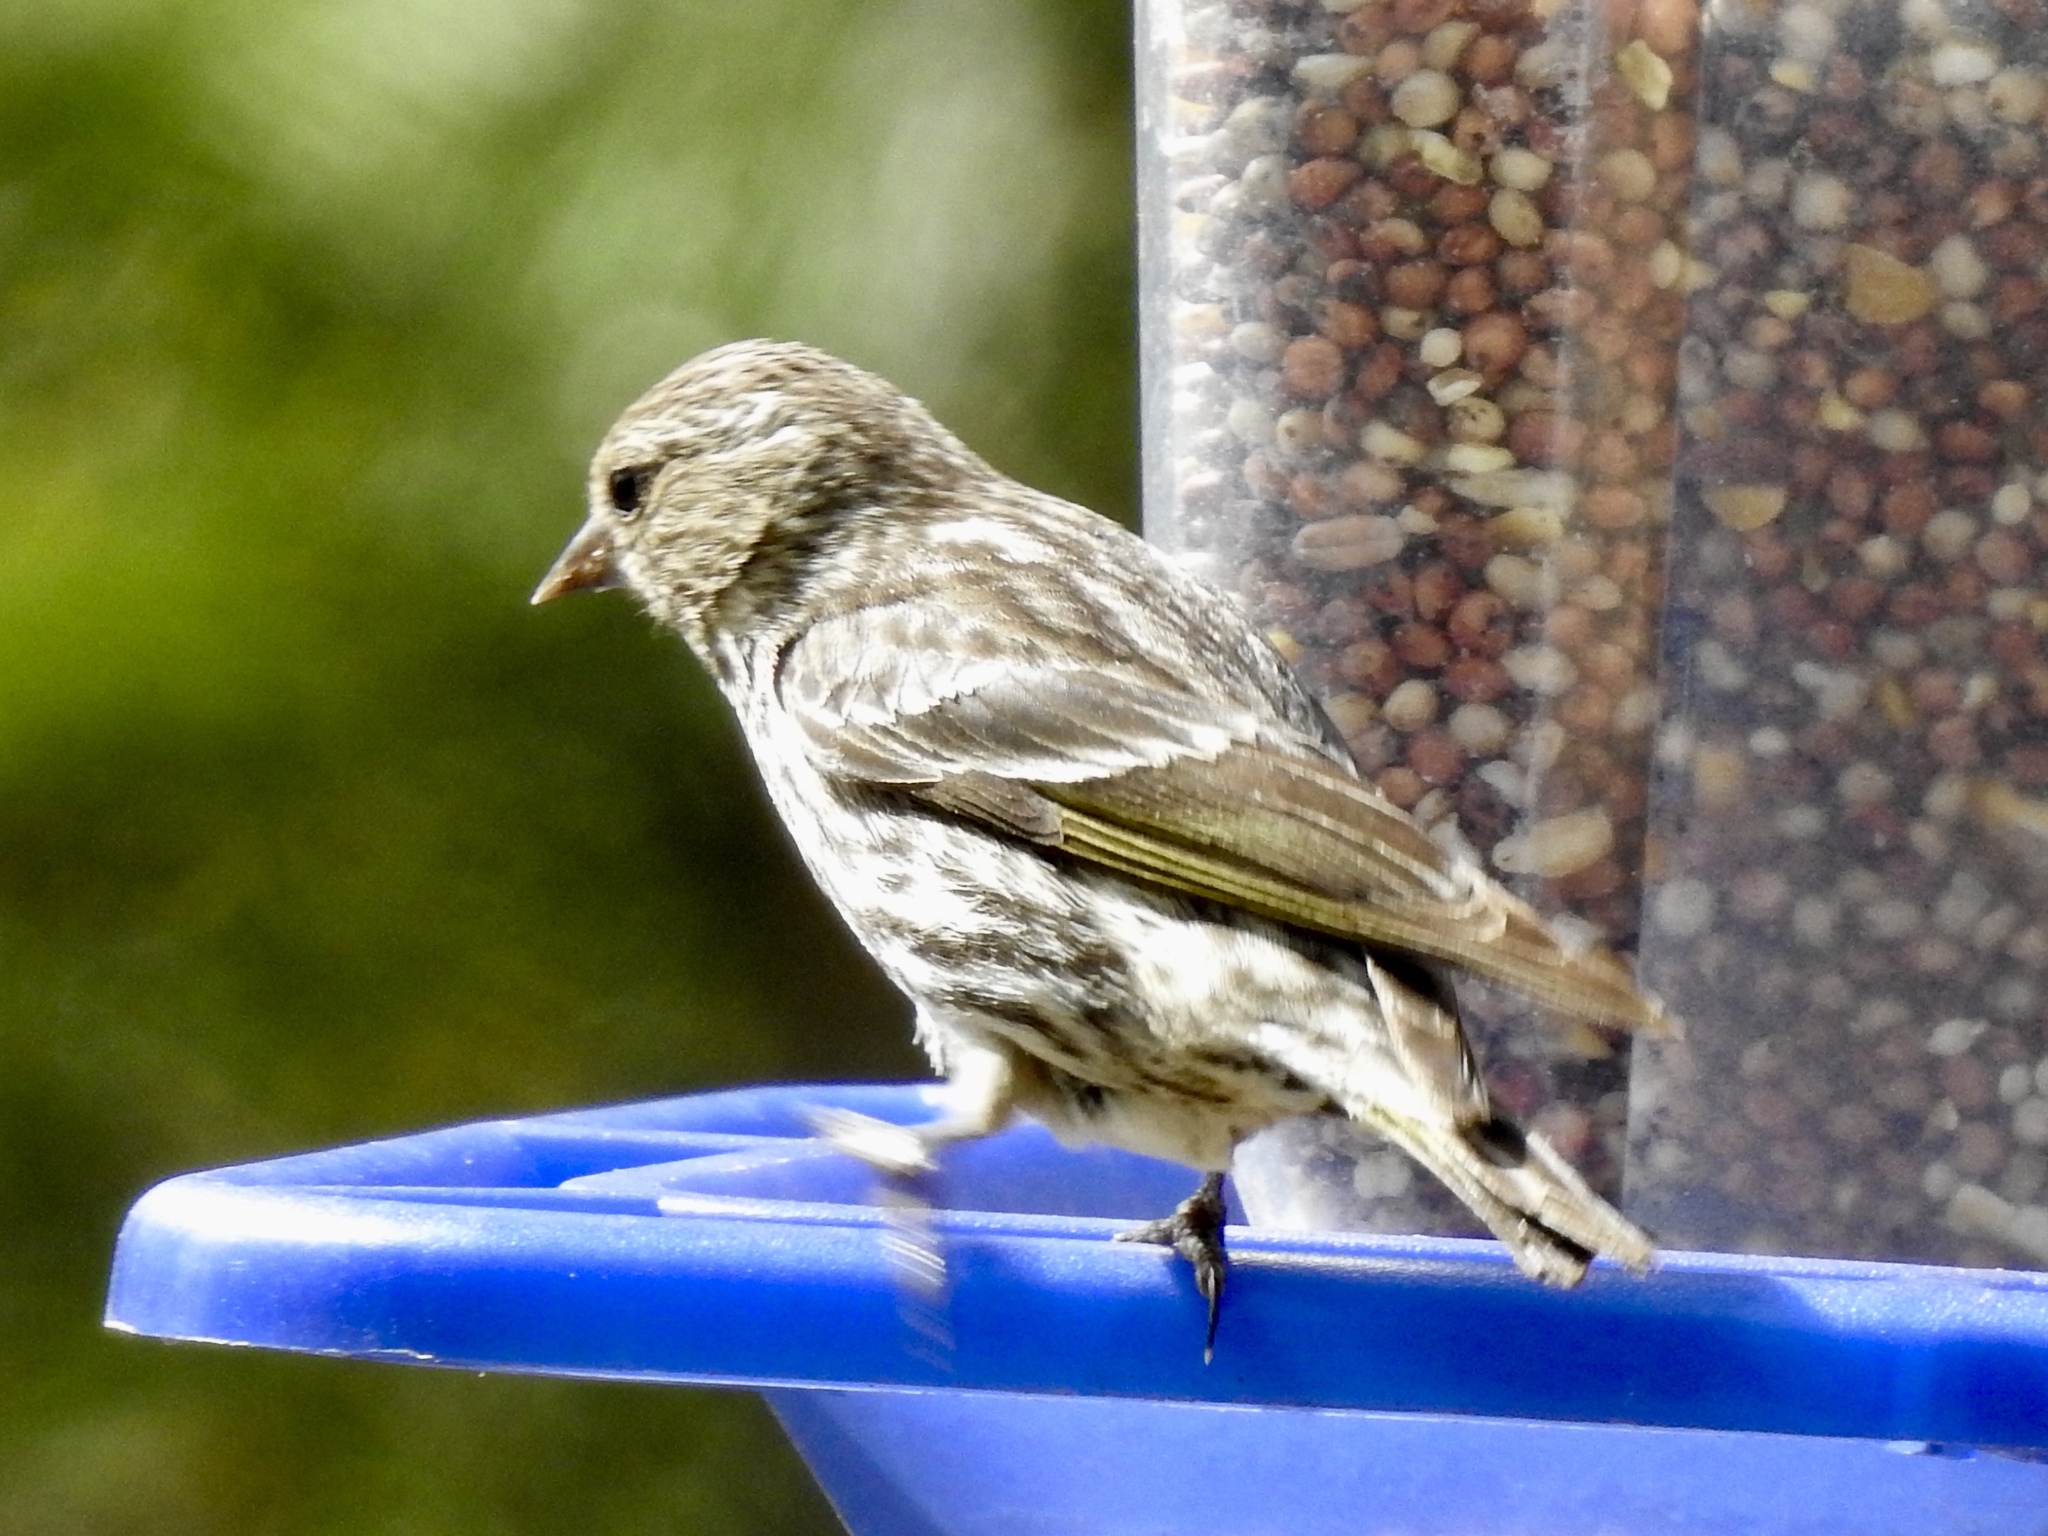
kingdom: Animalia
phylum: Chordata
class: Aves
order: Passeriformes
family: Fringillidae
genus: Spinus
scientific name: Spinus pinus
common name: Pine siskin
